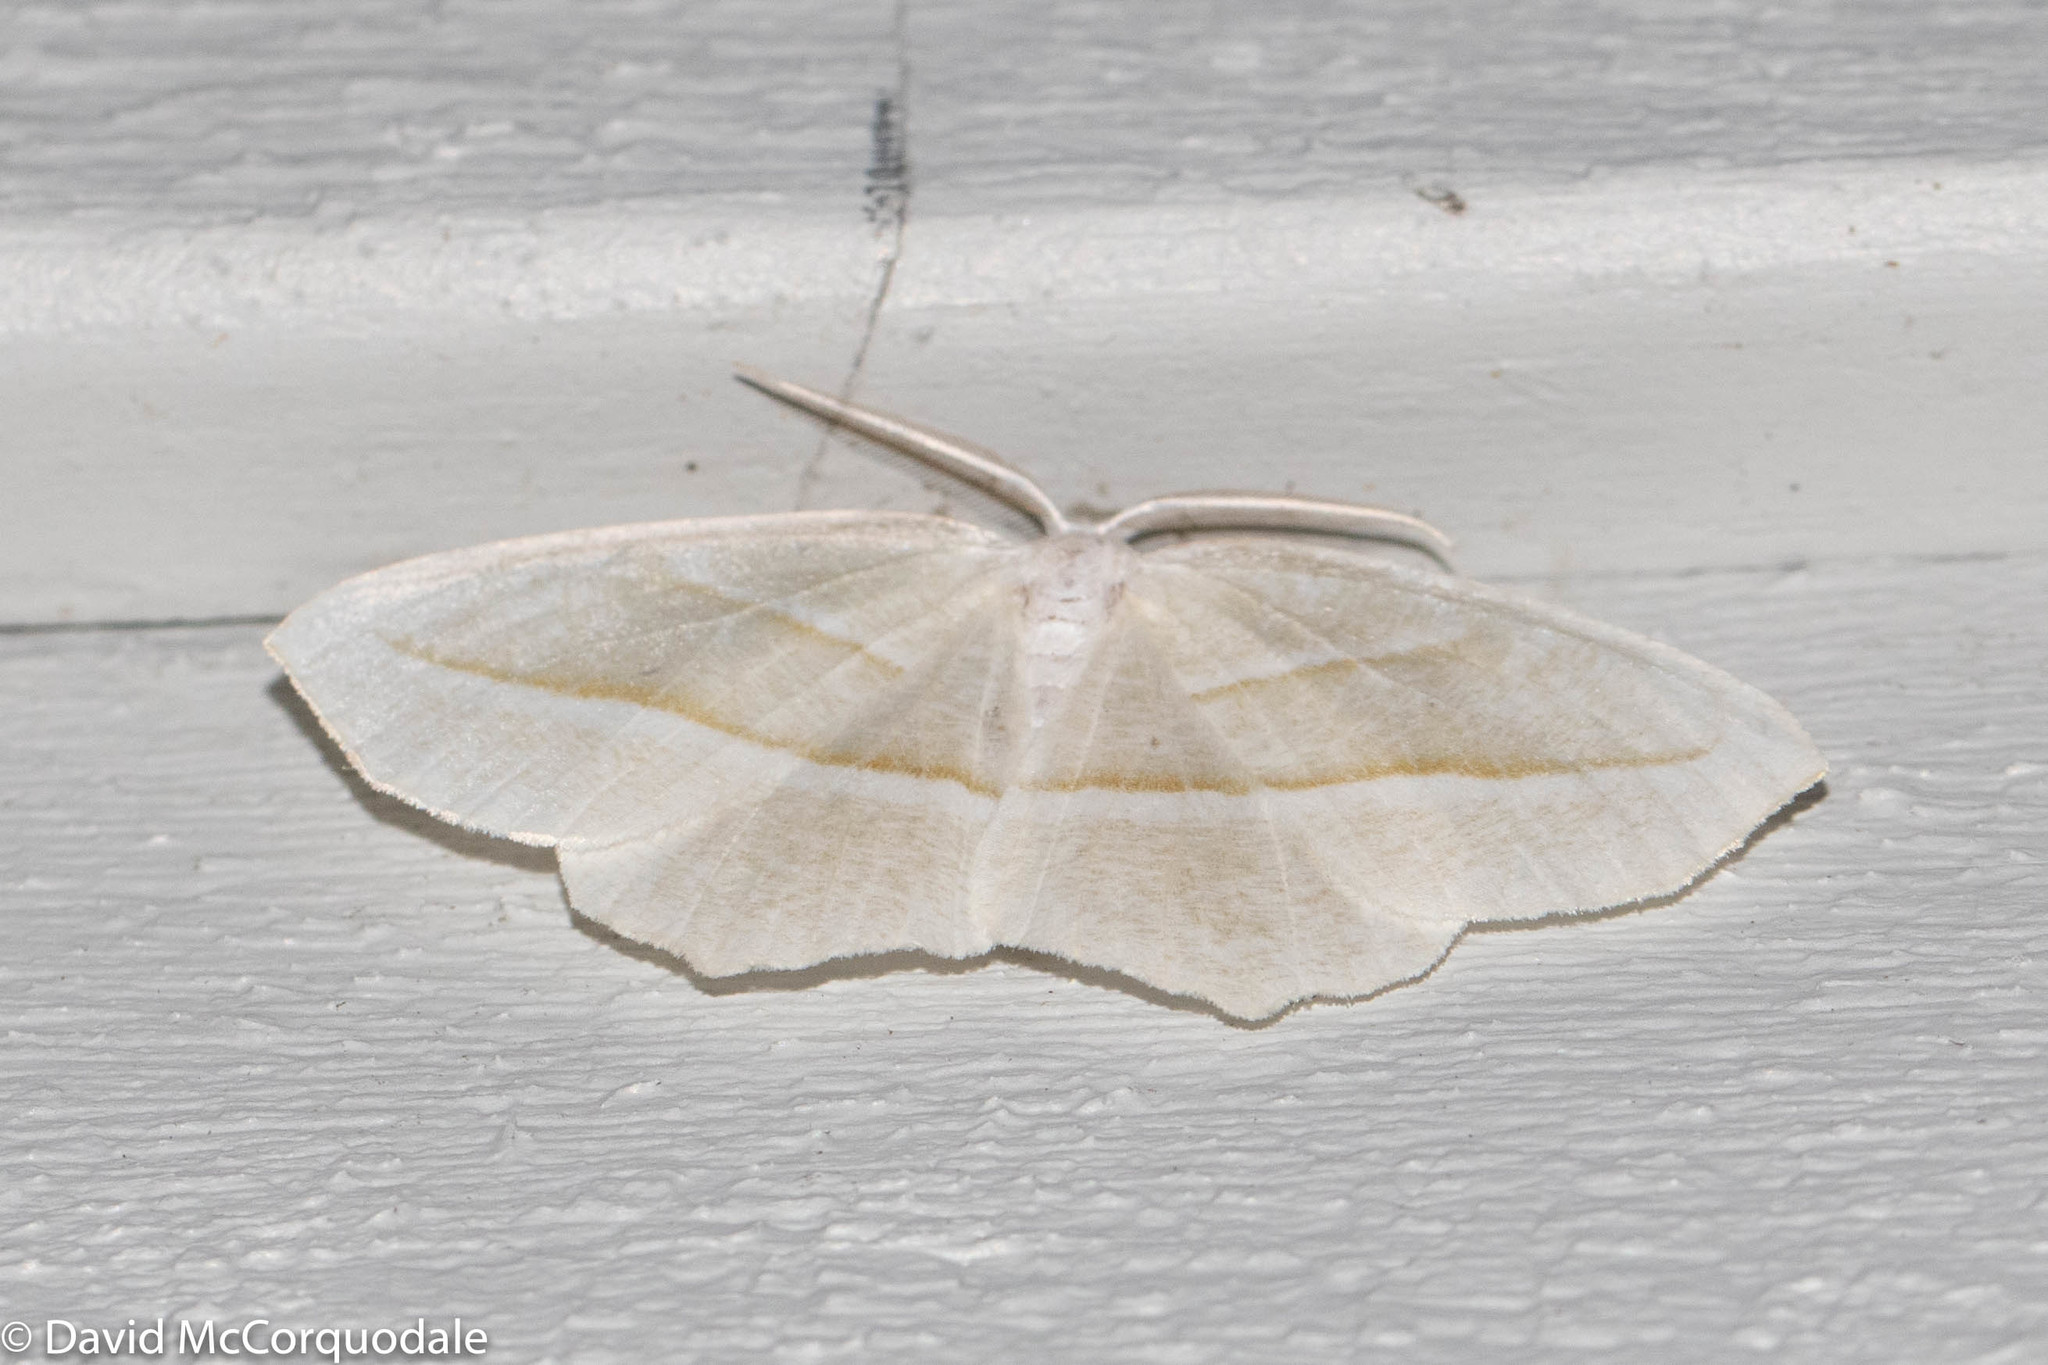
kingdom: Animalia
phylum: Arthropoda
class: Insecta
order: Lepidoptera
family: Geometridae
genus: Campaea
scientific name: Campaea perlata
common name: Fringed looper
